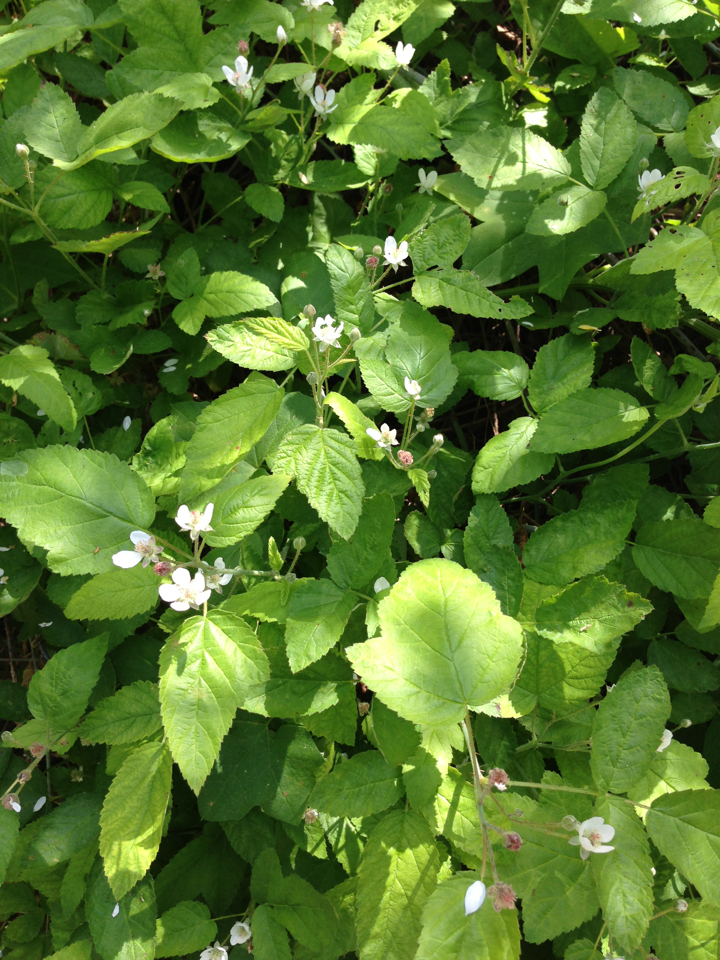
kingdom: Plantae
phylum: Tracheophyta
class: Magnoliopsida
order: Rosales
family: Rosaceae
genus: Rubus
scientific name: Rubus ursinus
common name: Pacific blackberry
